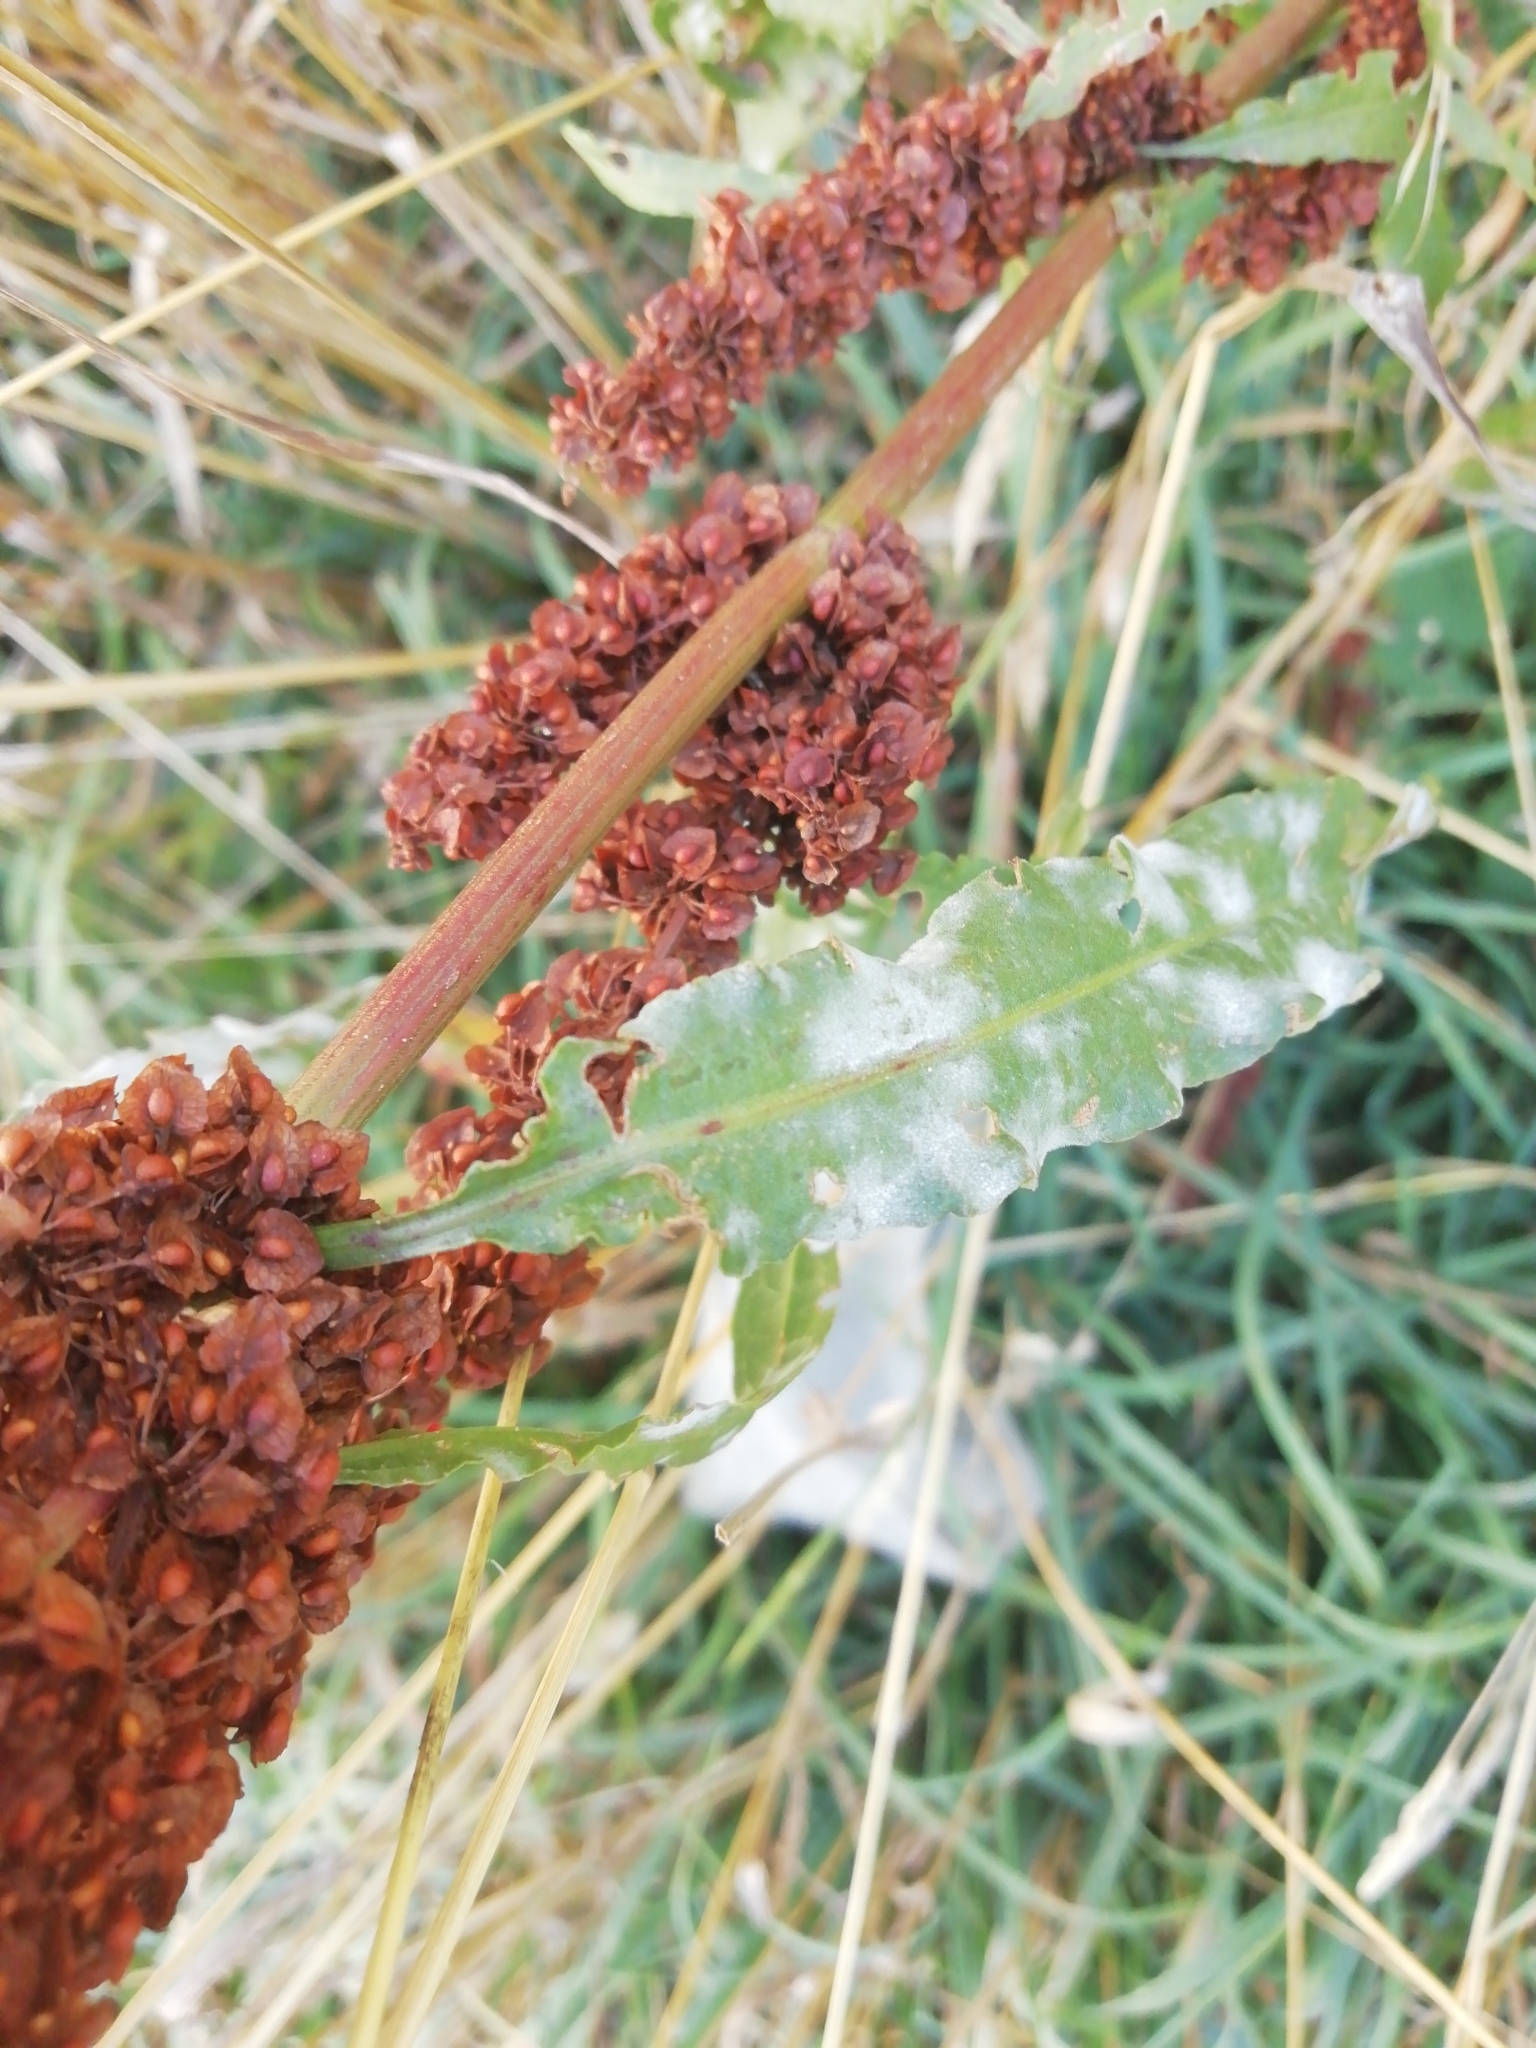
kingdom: Plantae
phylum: Tracheophyta
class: Magnoliopsida
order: Caryophyllales
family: Polygonaceae
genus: Rumex
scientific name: Rumex crispus
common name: Curled dock
